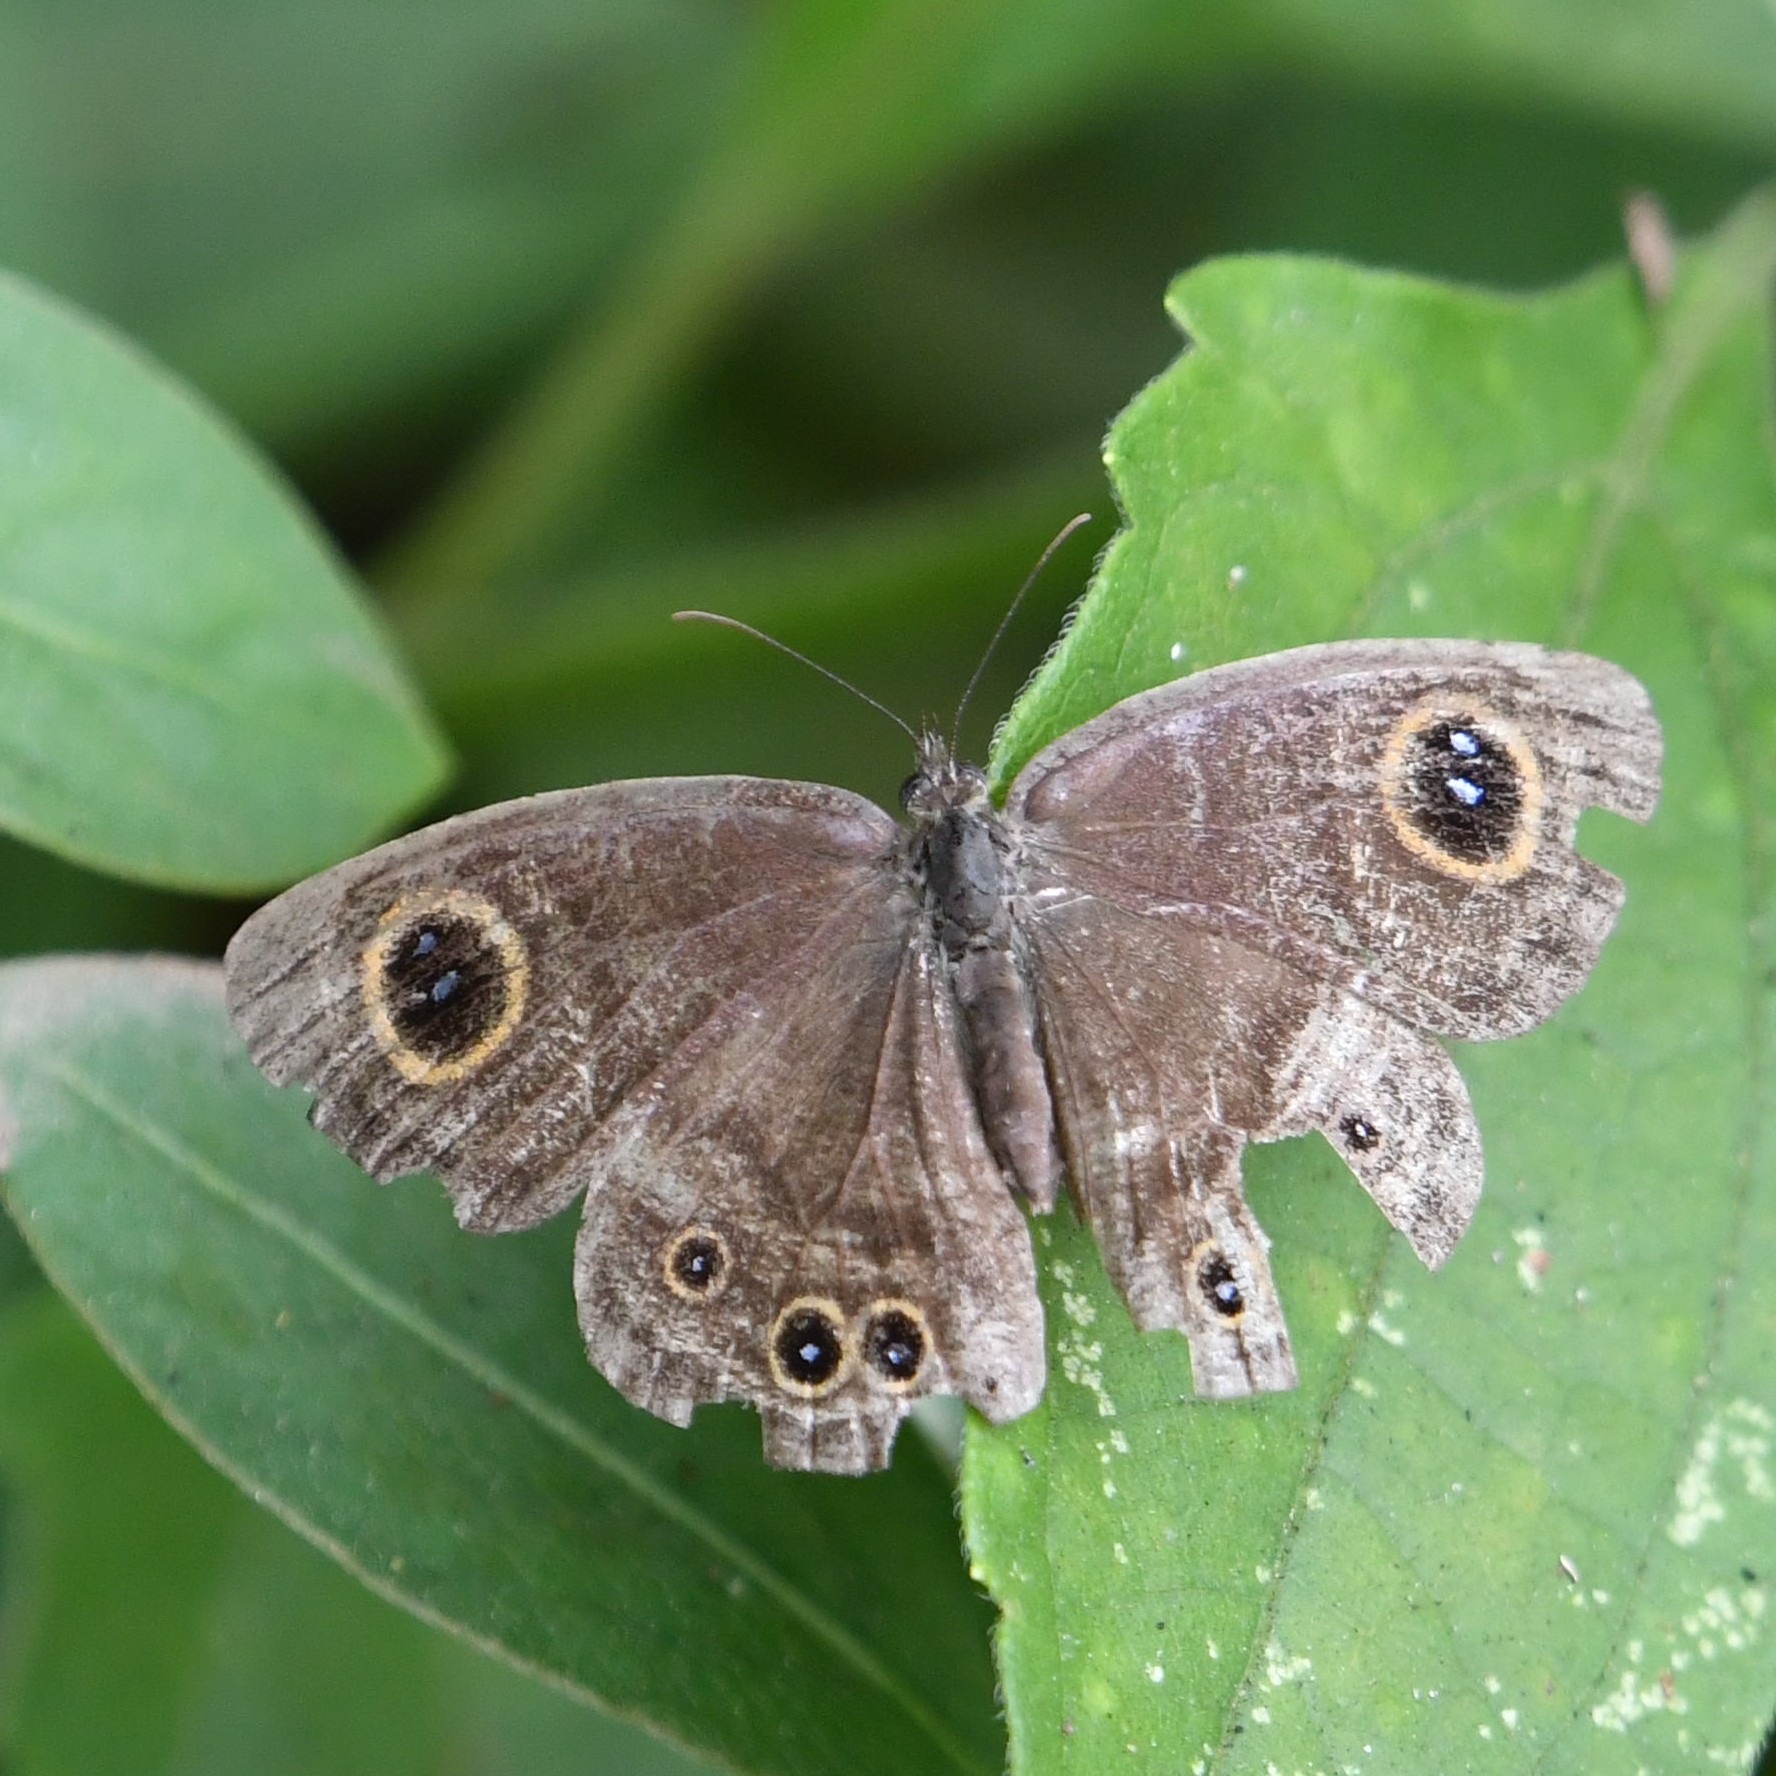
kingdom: Animalia
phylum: Arthropoda
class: Insecta
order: Lepidoptera
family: Nymphalidae
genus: Ypthima
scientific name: Ypthima baldus
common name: Common five-ring
